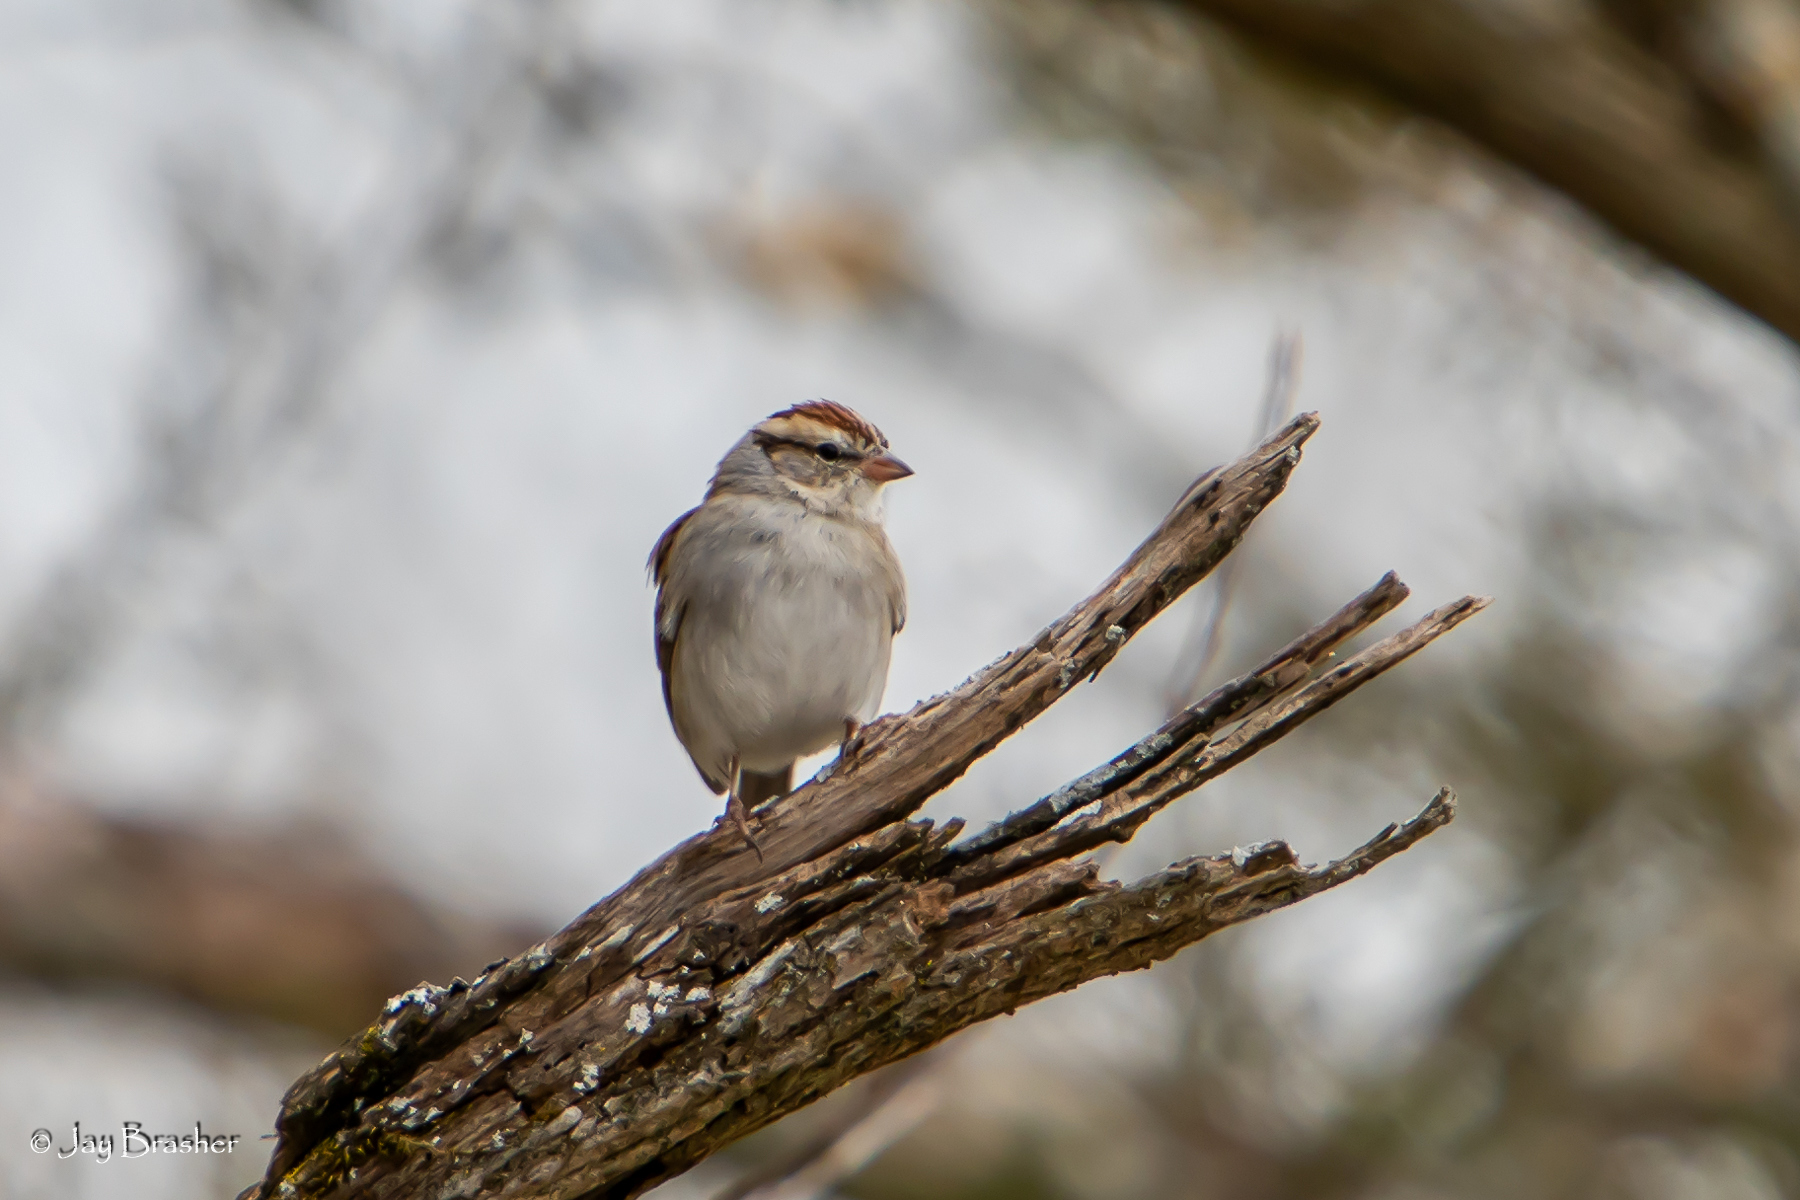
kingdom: Animalia
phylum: Chordata
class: Aves
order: Passeriformes
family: Passerellidae
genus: Spizella
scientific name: Spizella passerina
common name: Chipping sparrow
